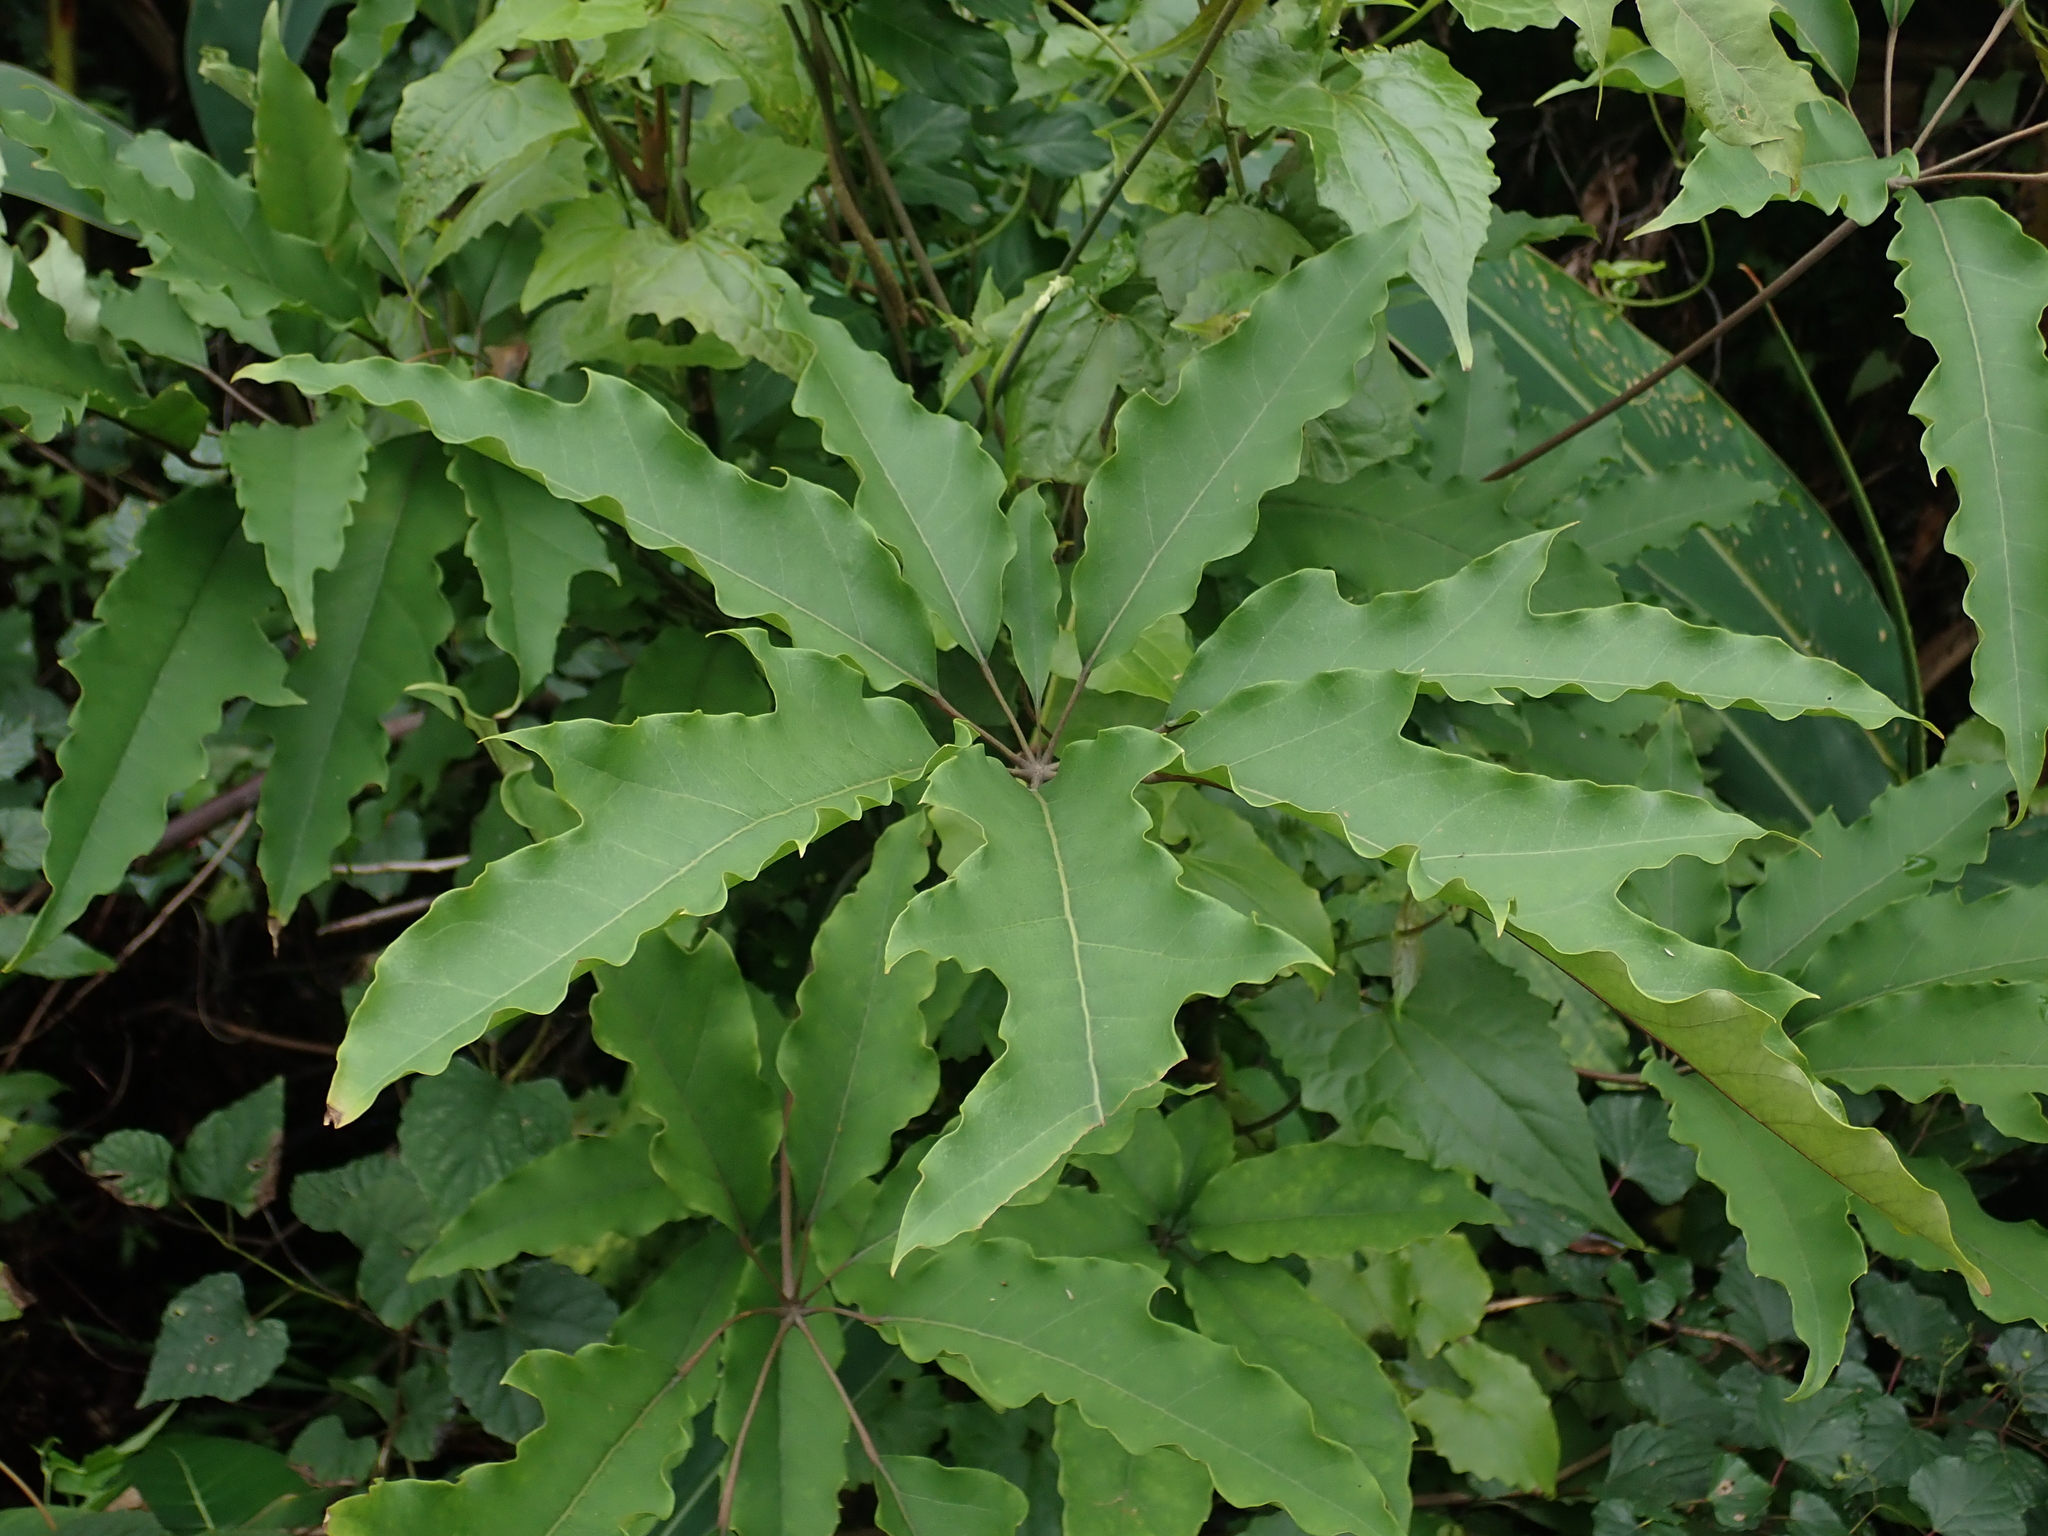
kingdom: Plantae
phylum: Tracheophyta
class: Magnoliopsida
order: Apiales
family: Araliaceae
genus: Heptapleurum
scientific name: Heptapleurum heptaphyllum
